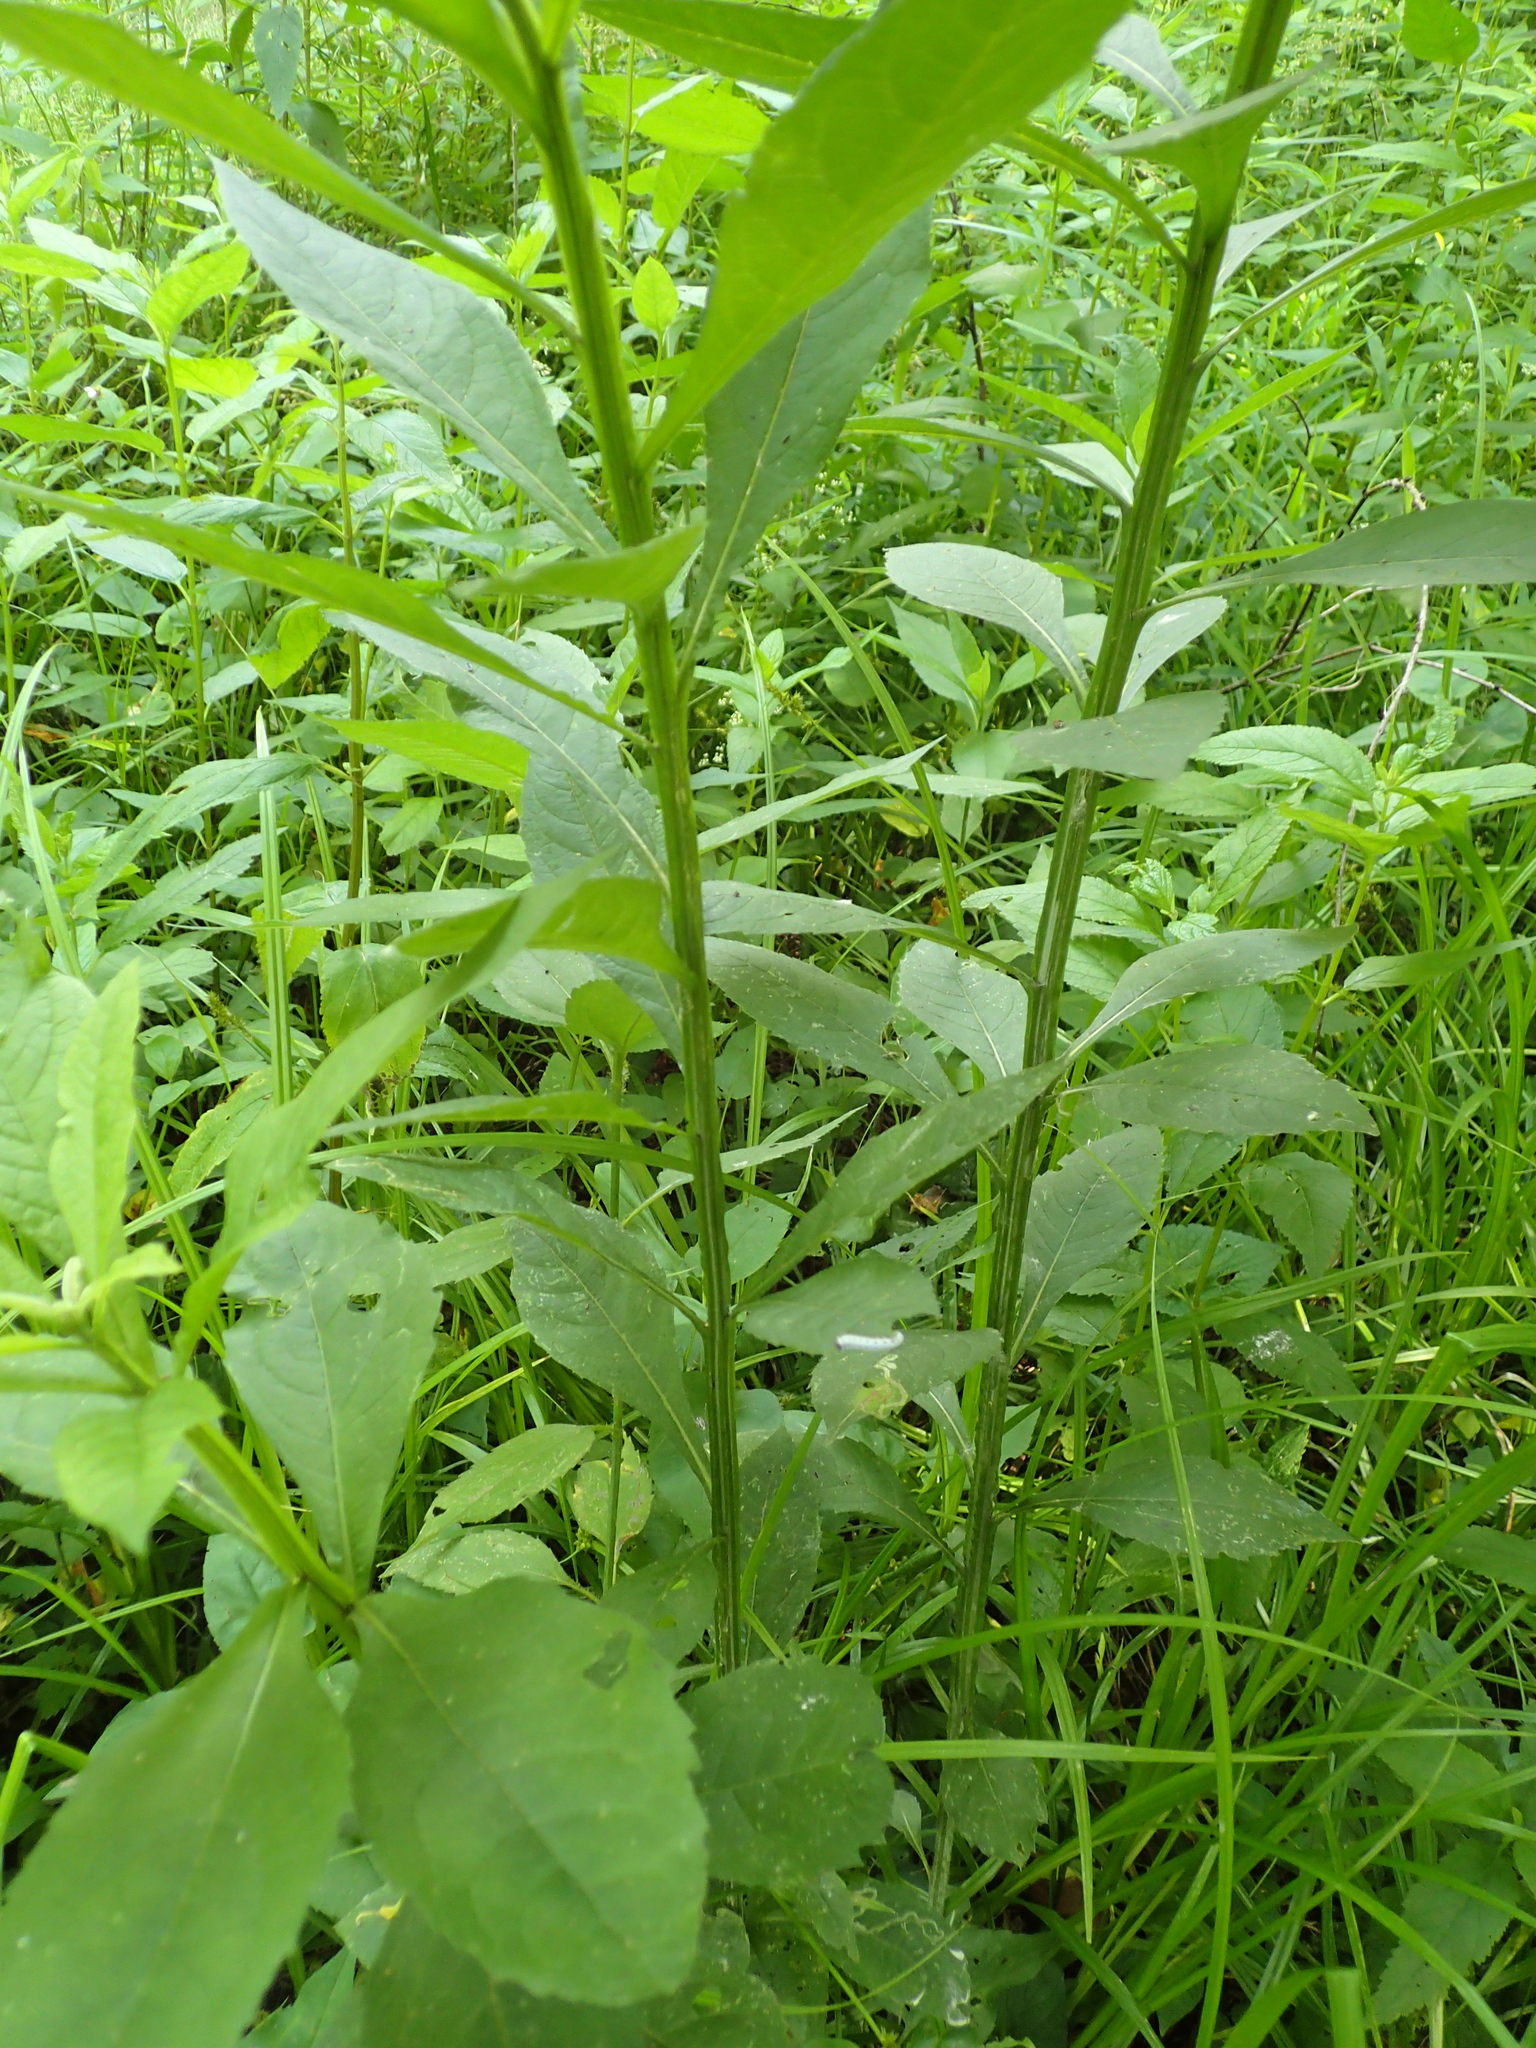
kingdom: Plantae
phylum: Tracheophyta
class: Magnoliopsida
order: Asterales
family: Asteraceae
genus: Verbesina
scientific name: Verbesina alternifolia
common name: Wingstem
